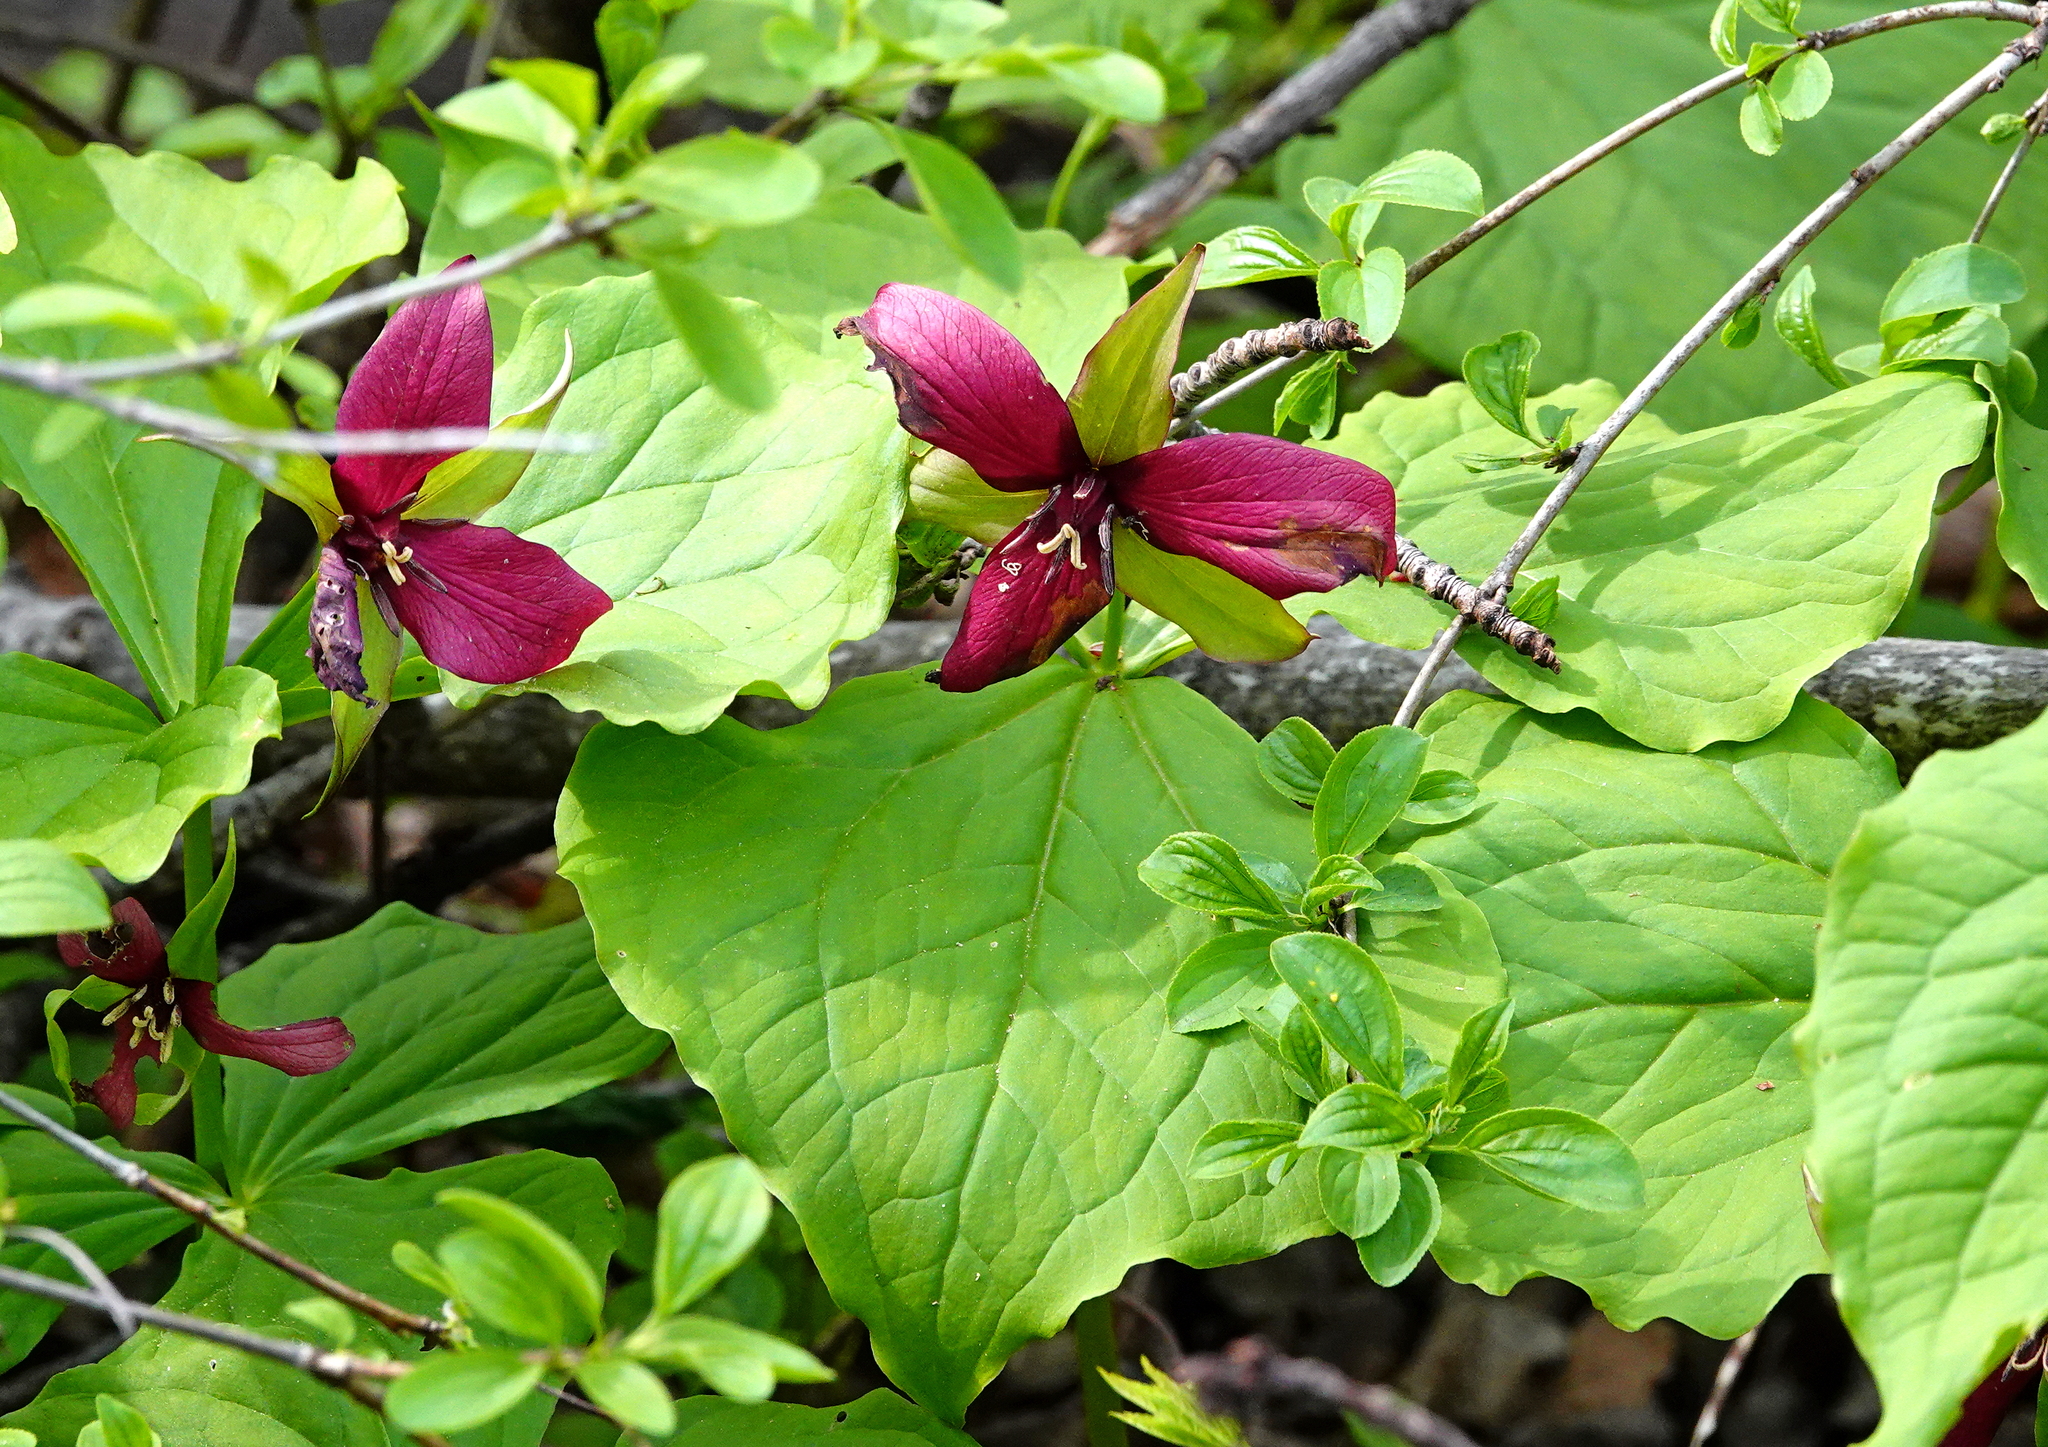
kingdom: Plantae
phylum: Tracheophyta
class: Liliopsida
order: Liliales
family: Melanthiaceae
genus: Trillium
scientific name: Trillium erectum
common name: Purple trillium
